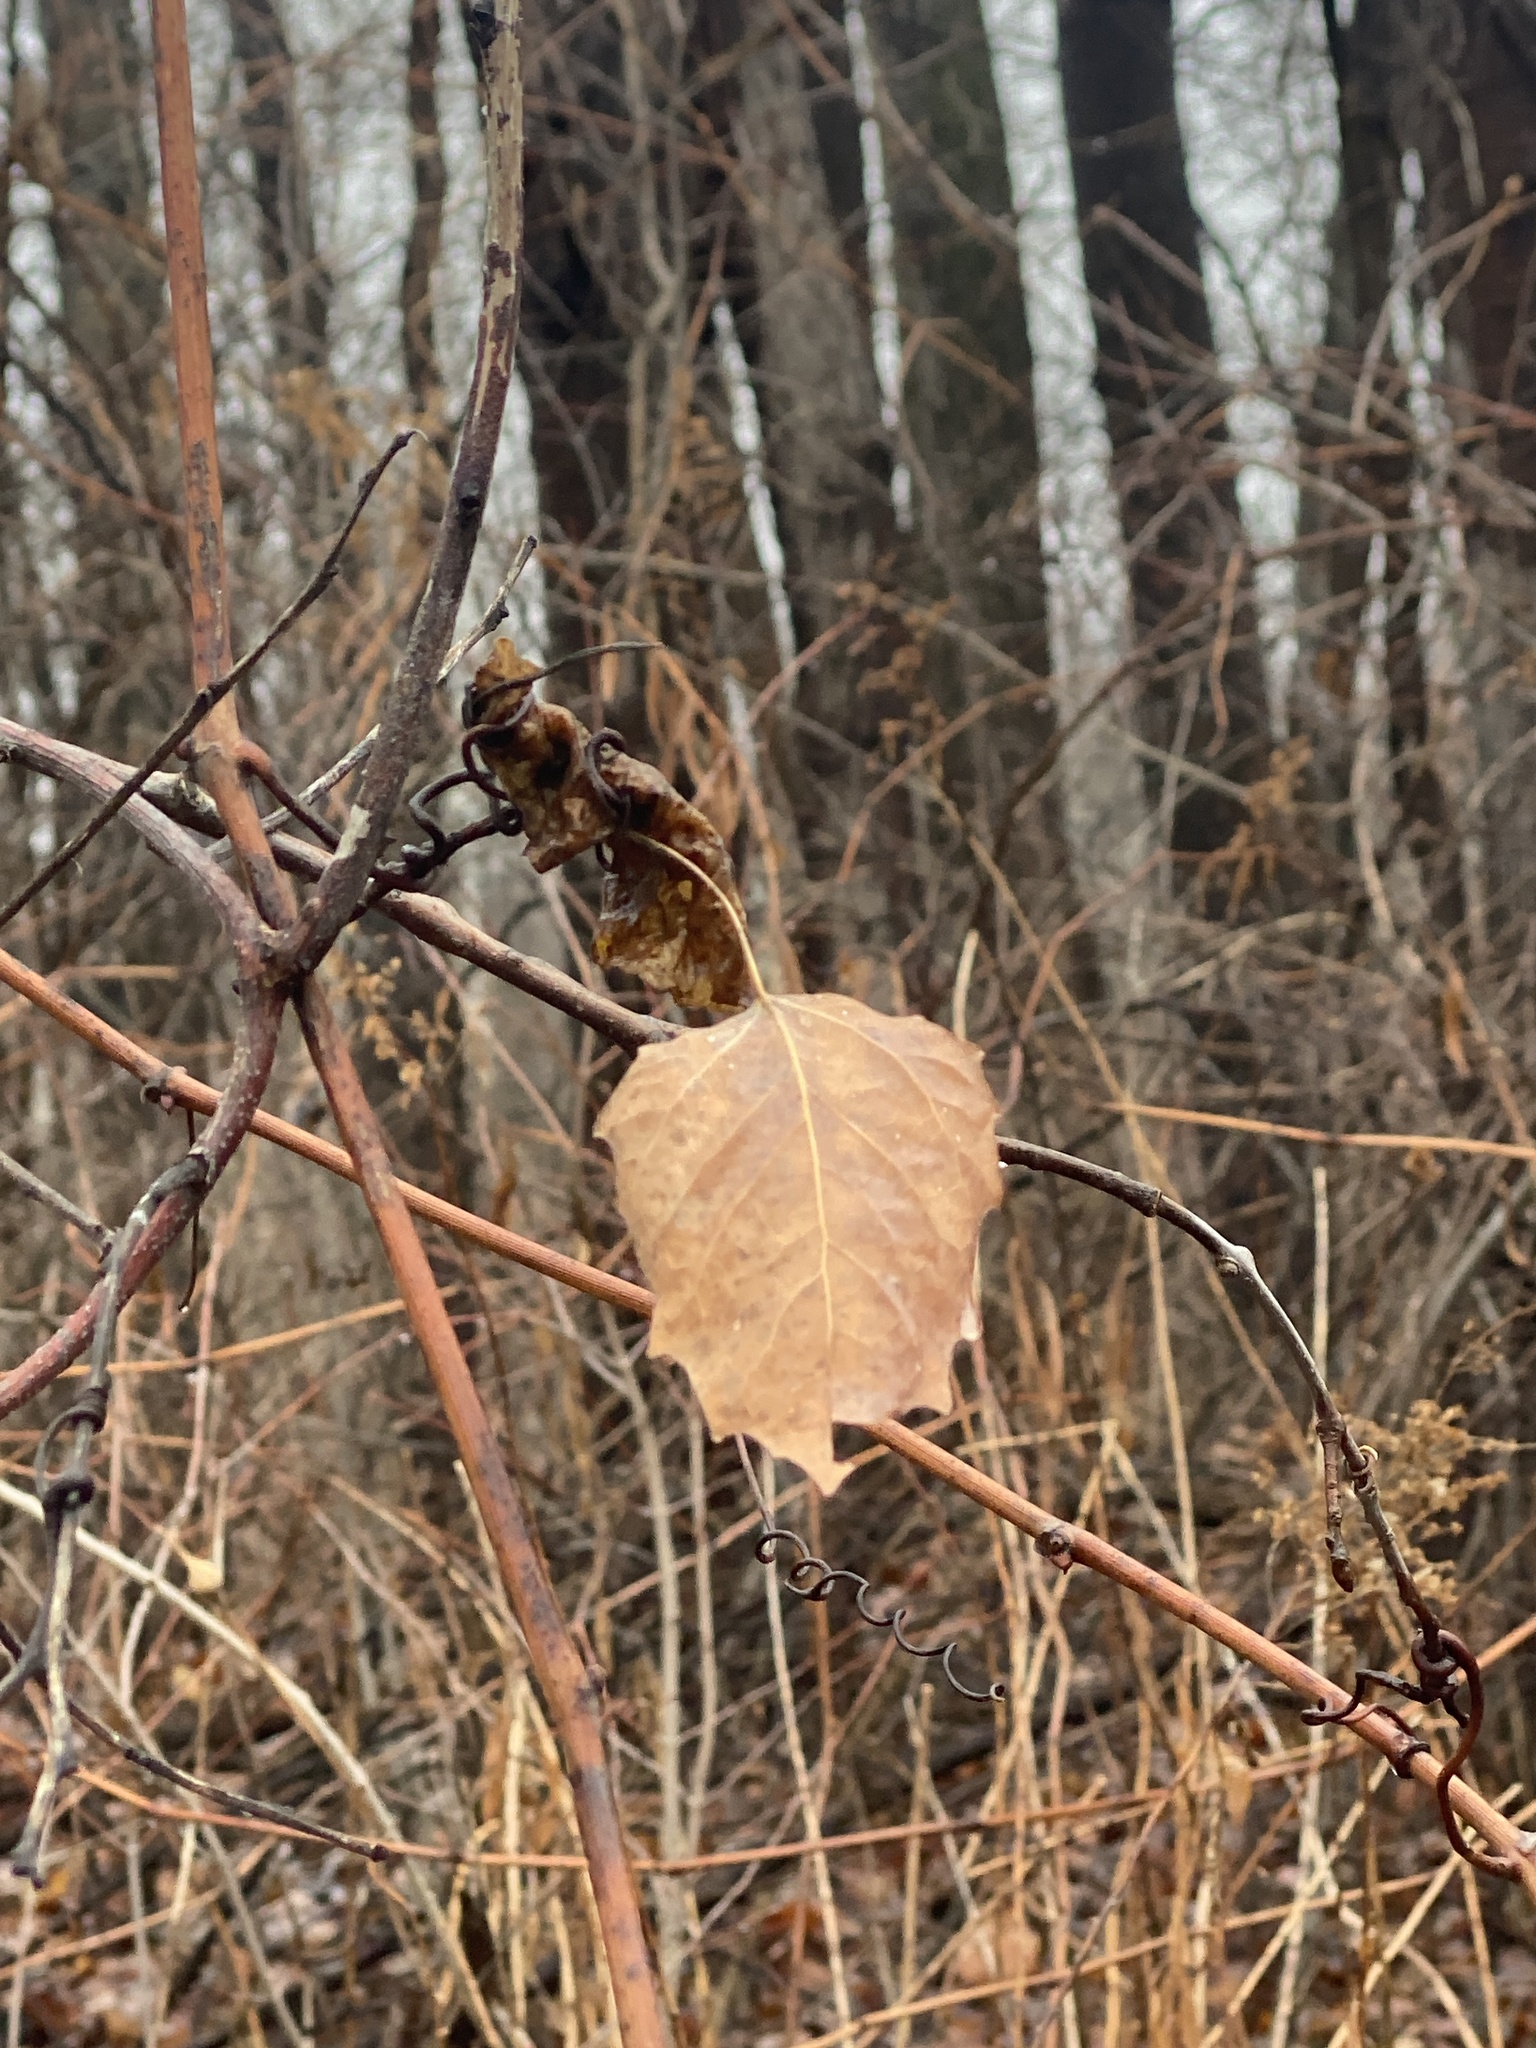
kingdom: Plantae
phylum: Tracheophyta
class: Magnoliopsida
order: Malpighiales
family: Salicaceae
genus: Populus
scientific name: Populus grandidentata
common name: Bigtooth aspen
